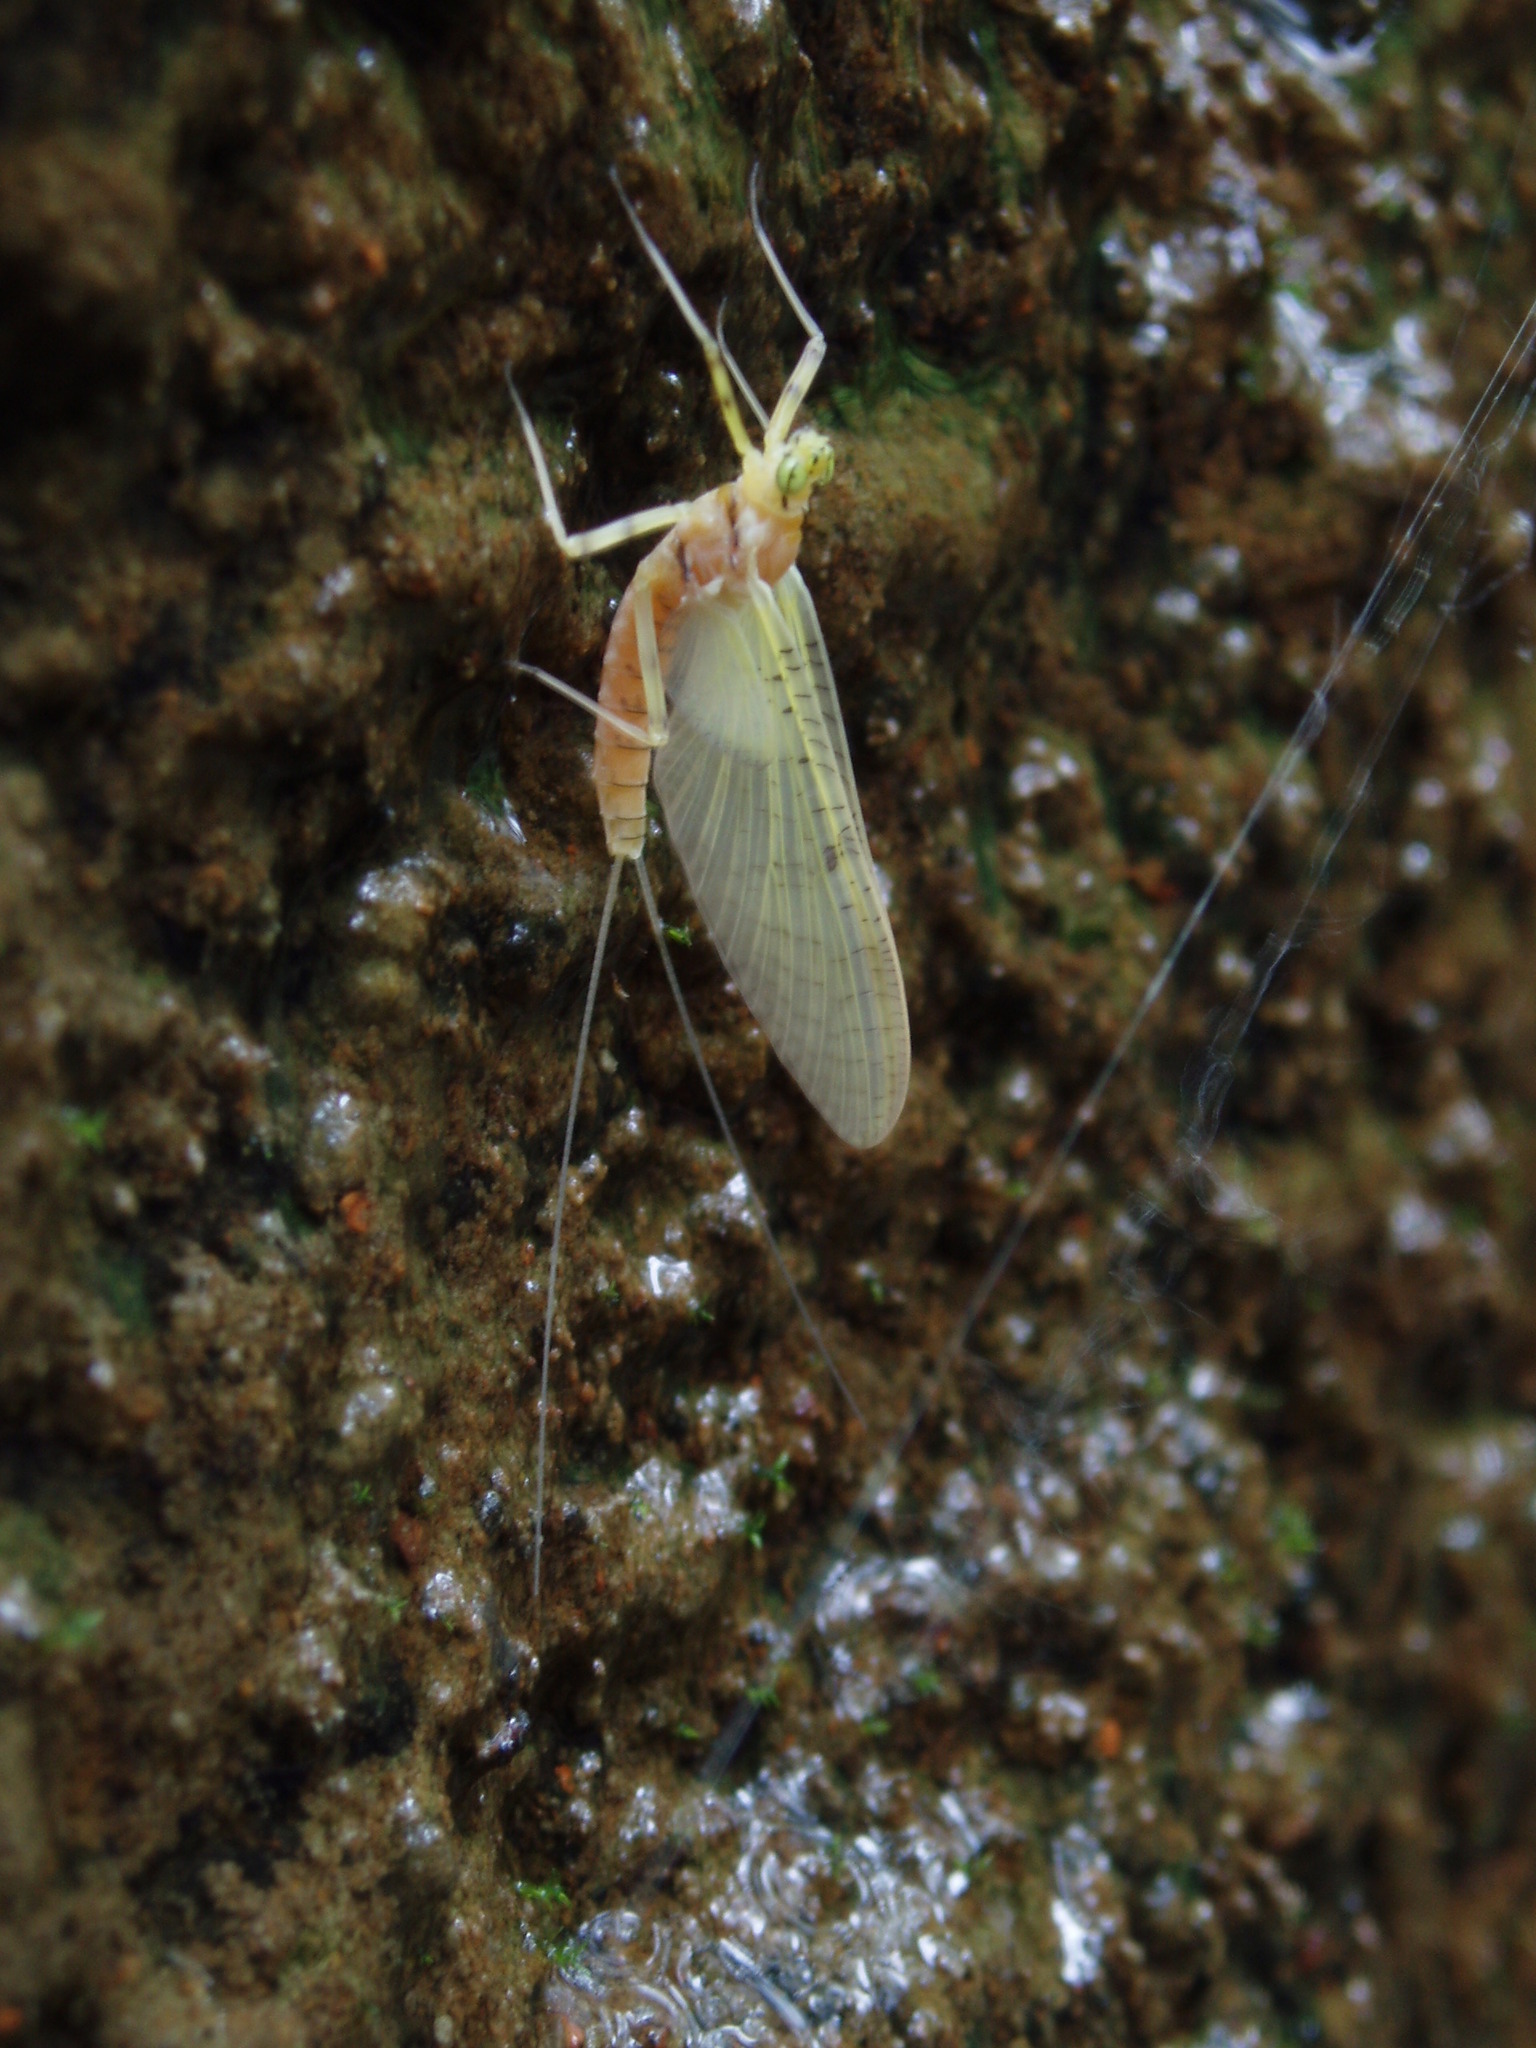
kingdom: Animalia
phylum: Arthropoda
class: Insecta
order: Ephemeroptera
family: Heptageniidae
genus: Stenacron
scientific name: Stenacron interpunctatum
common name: Orange cahill
